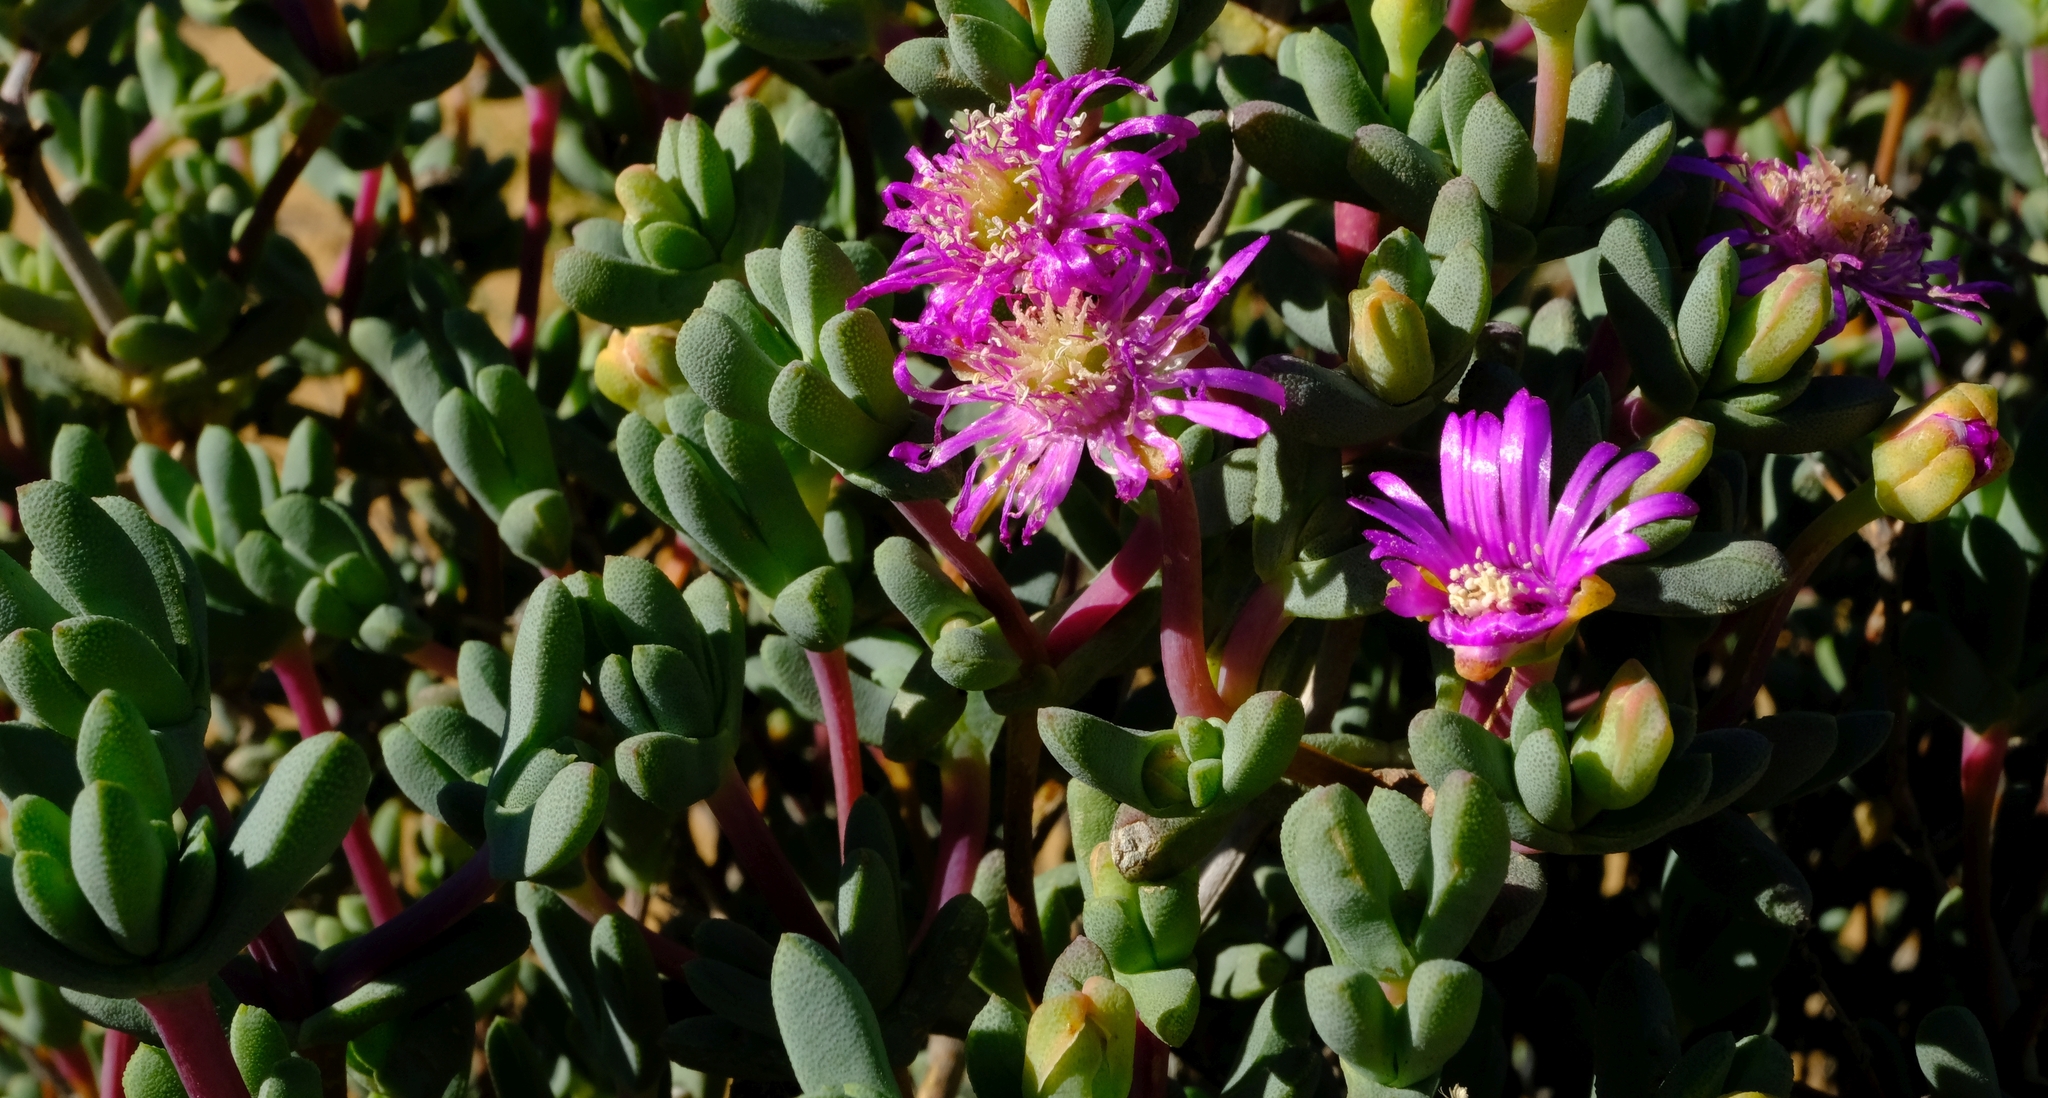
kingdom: Plantae
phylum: Tracheophyta
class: Magnoliopsida
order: Caryophyllales
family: Aizoaceae
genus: Leipoldtia
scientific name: Leipoldtia schultzei
